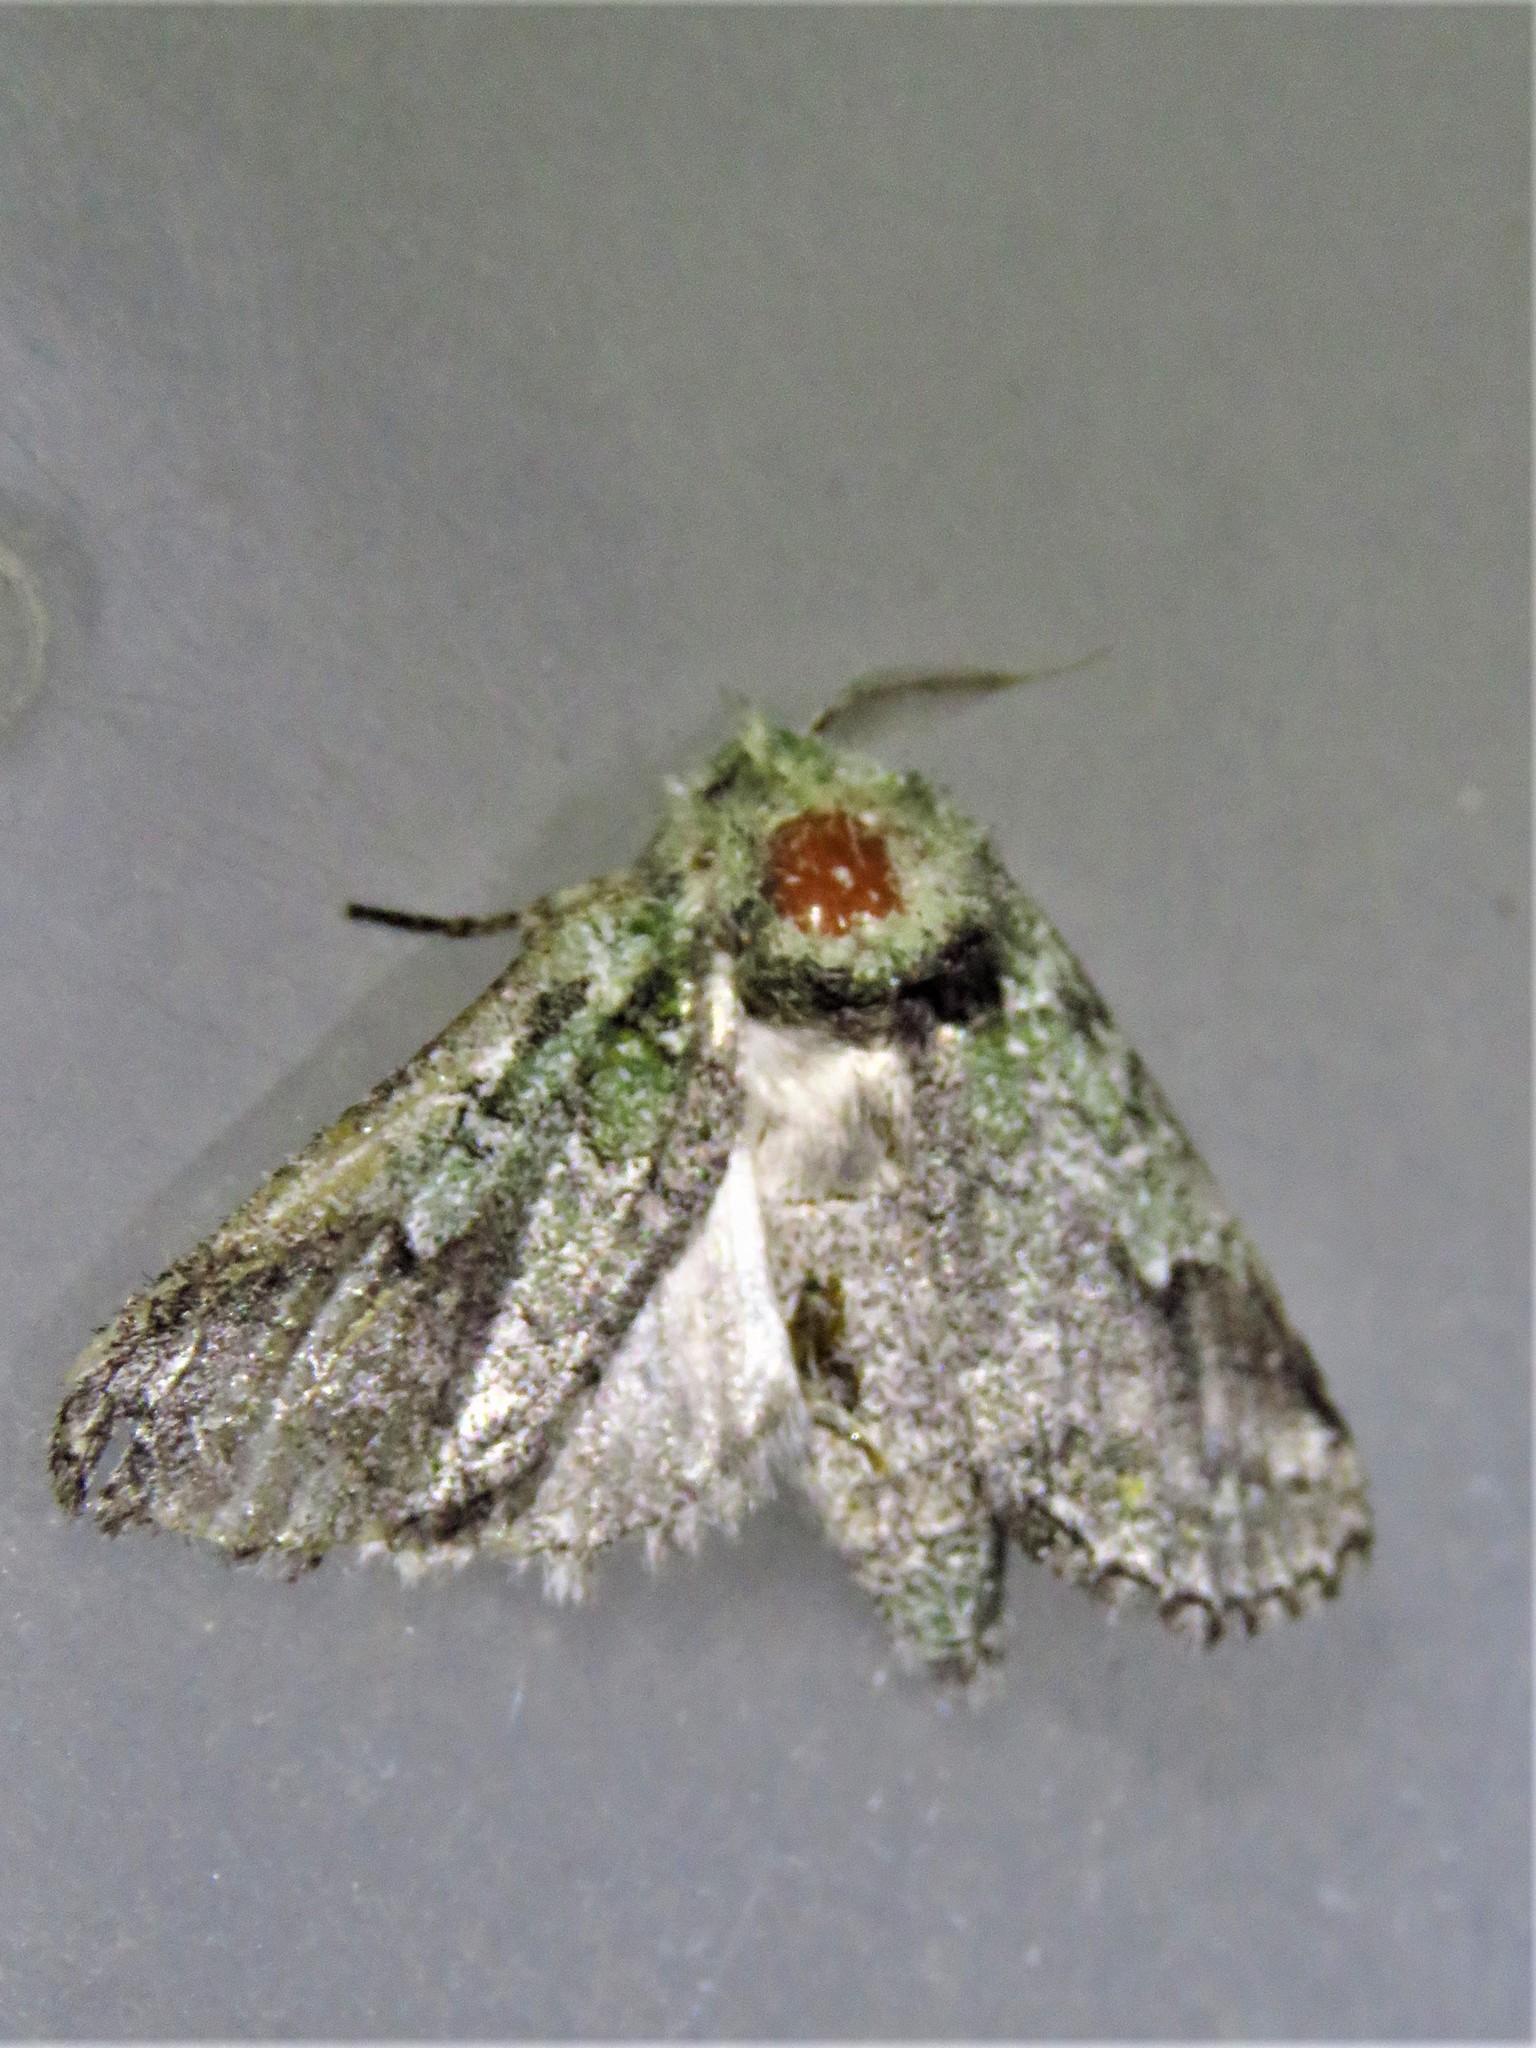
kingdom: Animalia
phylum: Arthropoda
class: Insecta
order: Lepidoptera
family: Notodontidae
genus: Litodonta
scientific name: Litodonta hydromeli
